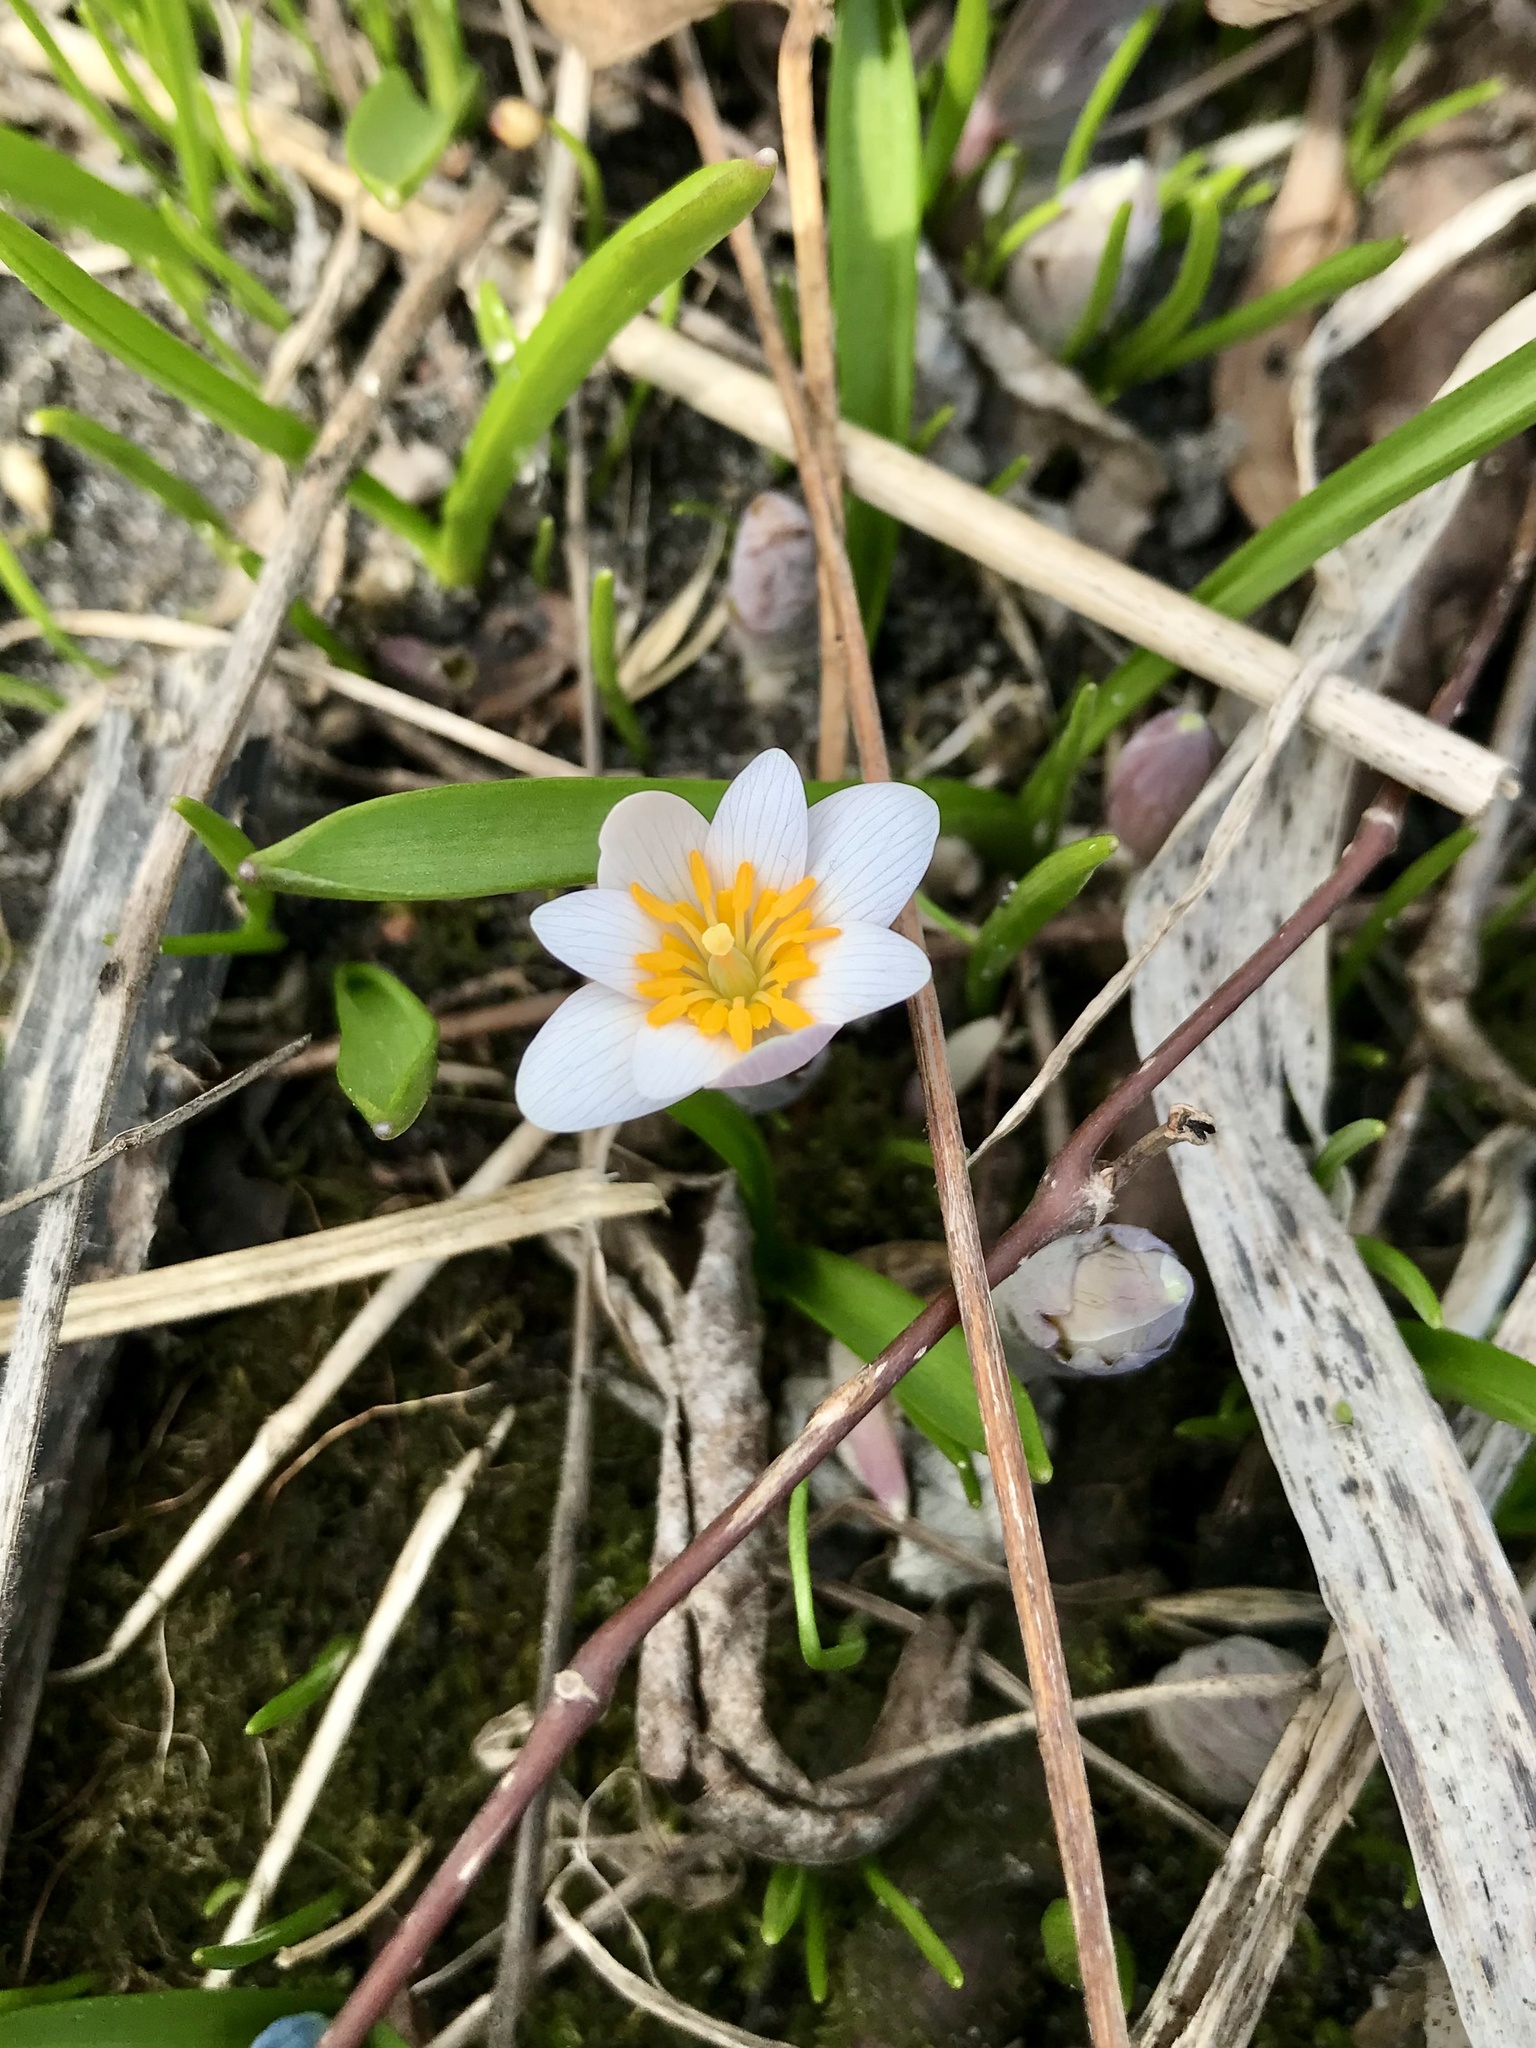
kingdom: Plantae
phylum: Tracheophyta
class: Magnoliopsida
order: Ranunculales
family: Papaveraceae
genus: Sanguinaria
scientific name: Sanguinaria canadensis
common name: Bloodroot
